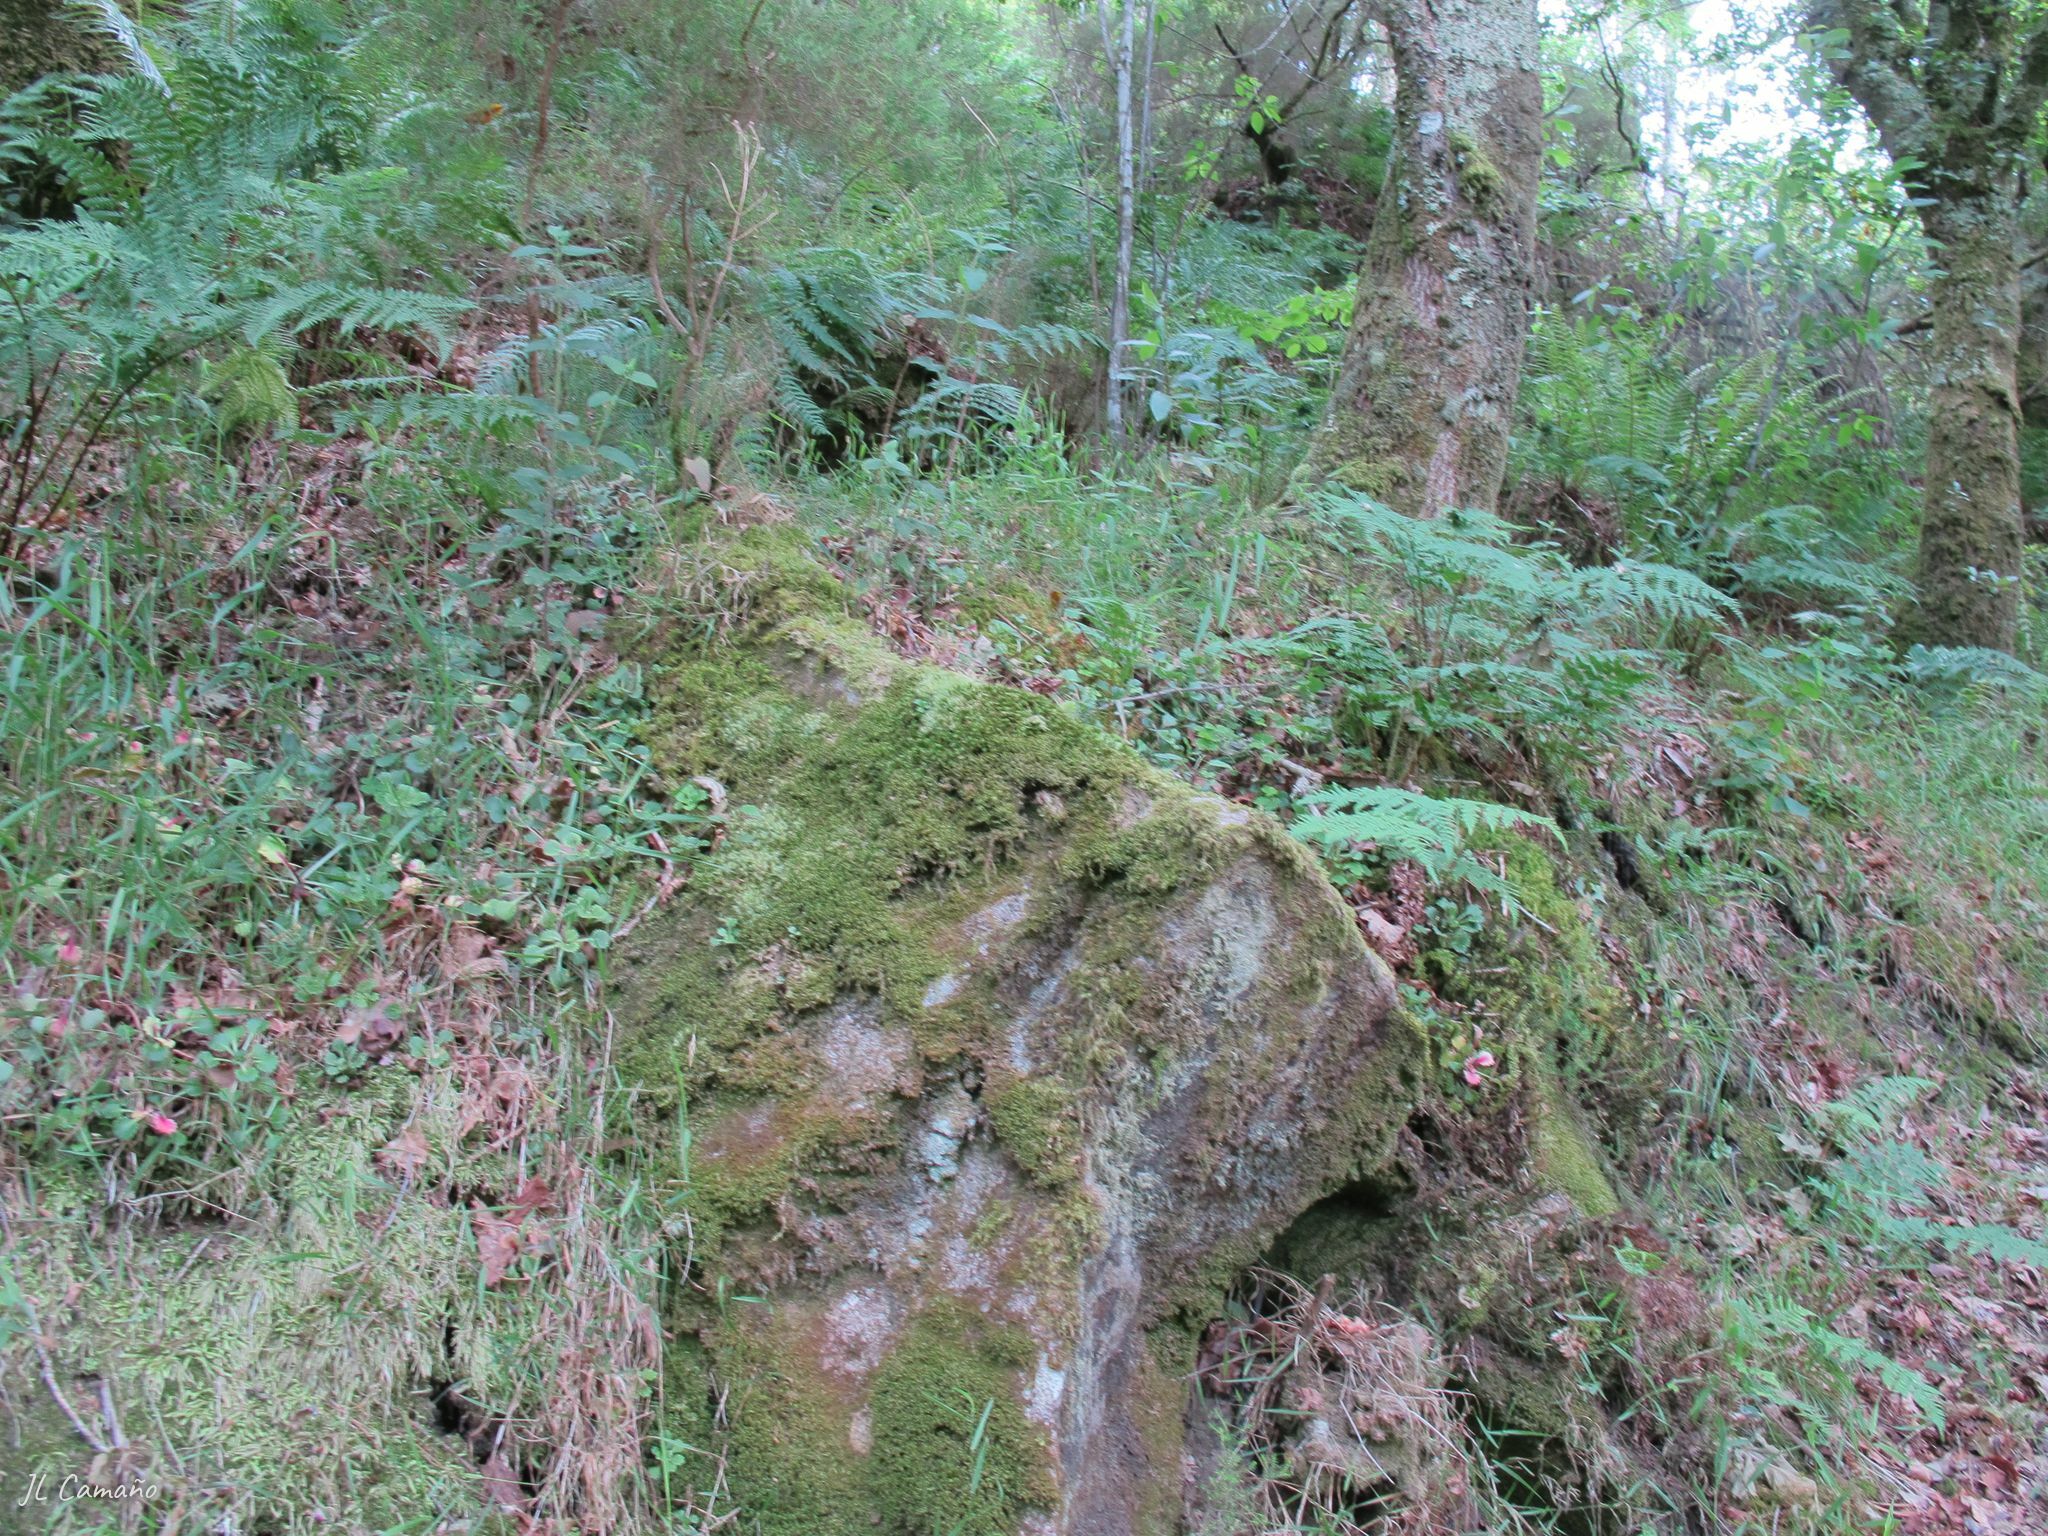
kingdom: Plantae
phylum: Marchantiophyta
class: Jungermanniopsida
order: Jungermanniales
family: Lepidoziaceae
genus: Bazzania
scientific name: Bazzania trilobata
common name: Three-lobed whipwort
